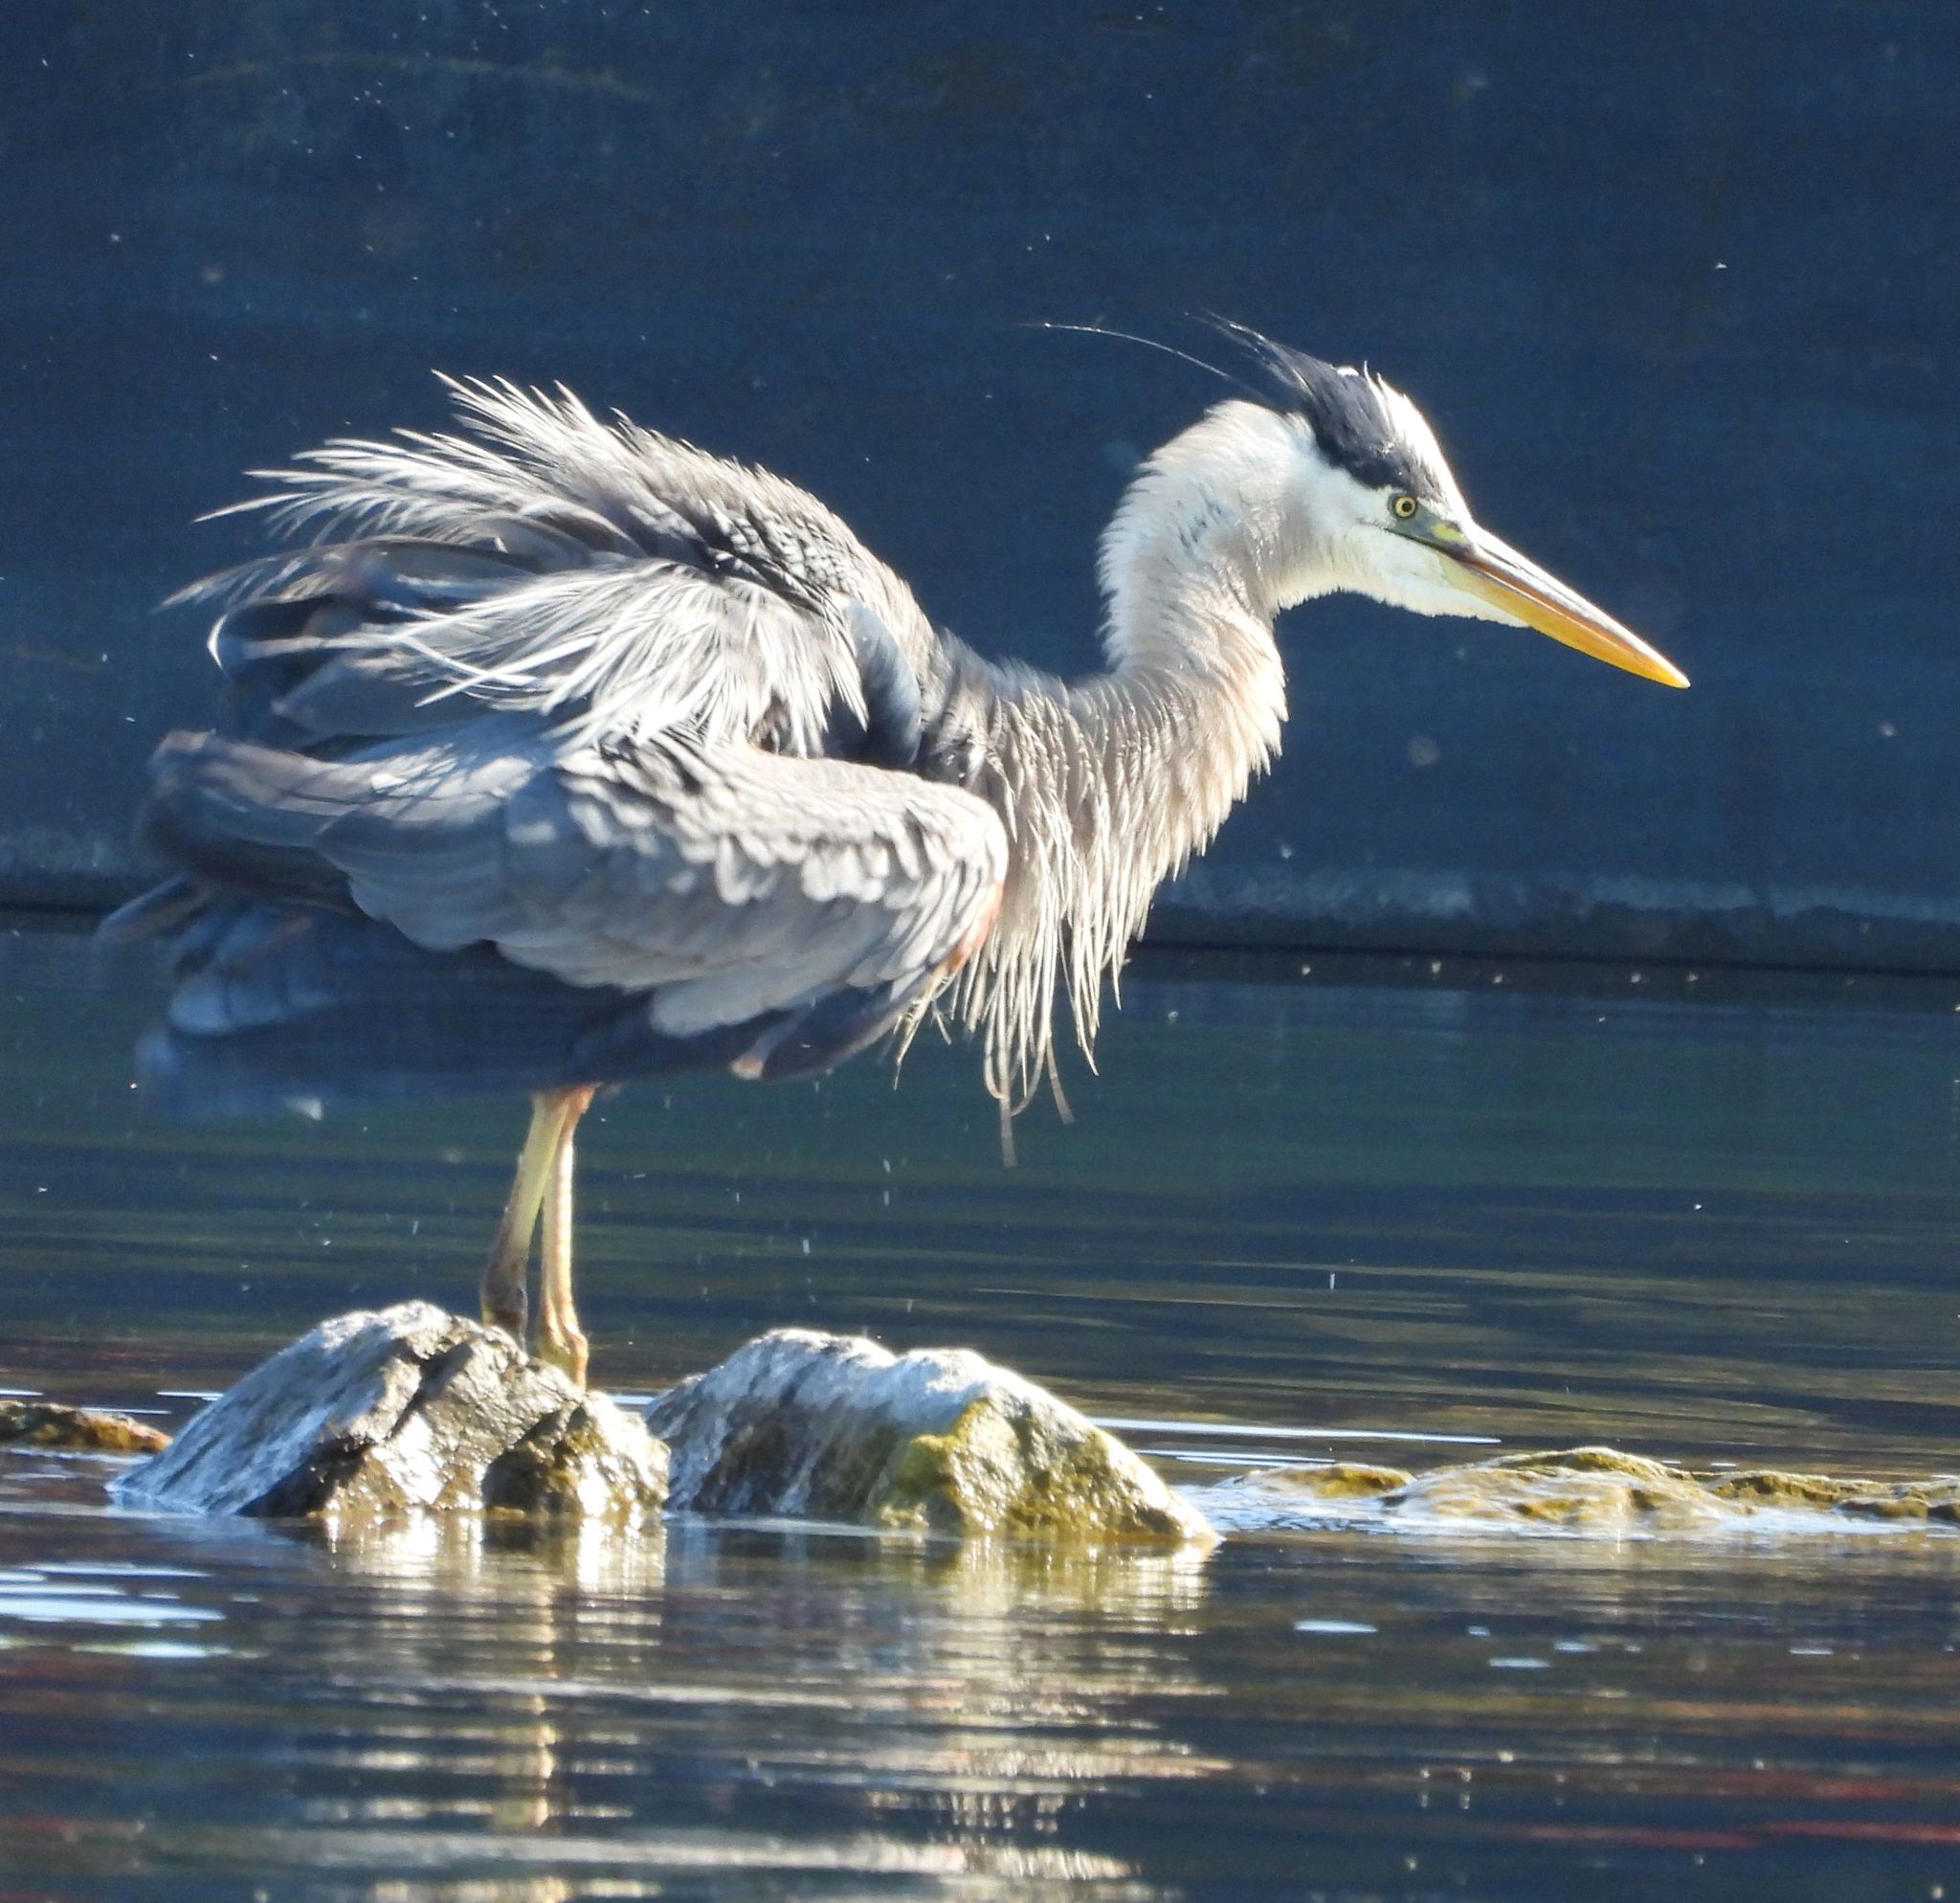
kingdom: Animalia
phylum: Chordata
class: Aves
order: Pelecaniformes
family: Ardeidae
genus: Ardea
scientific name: Ardea herodias
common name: Great blue heron
